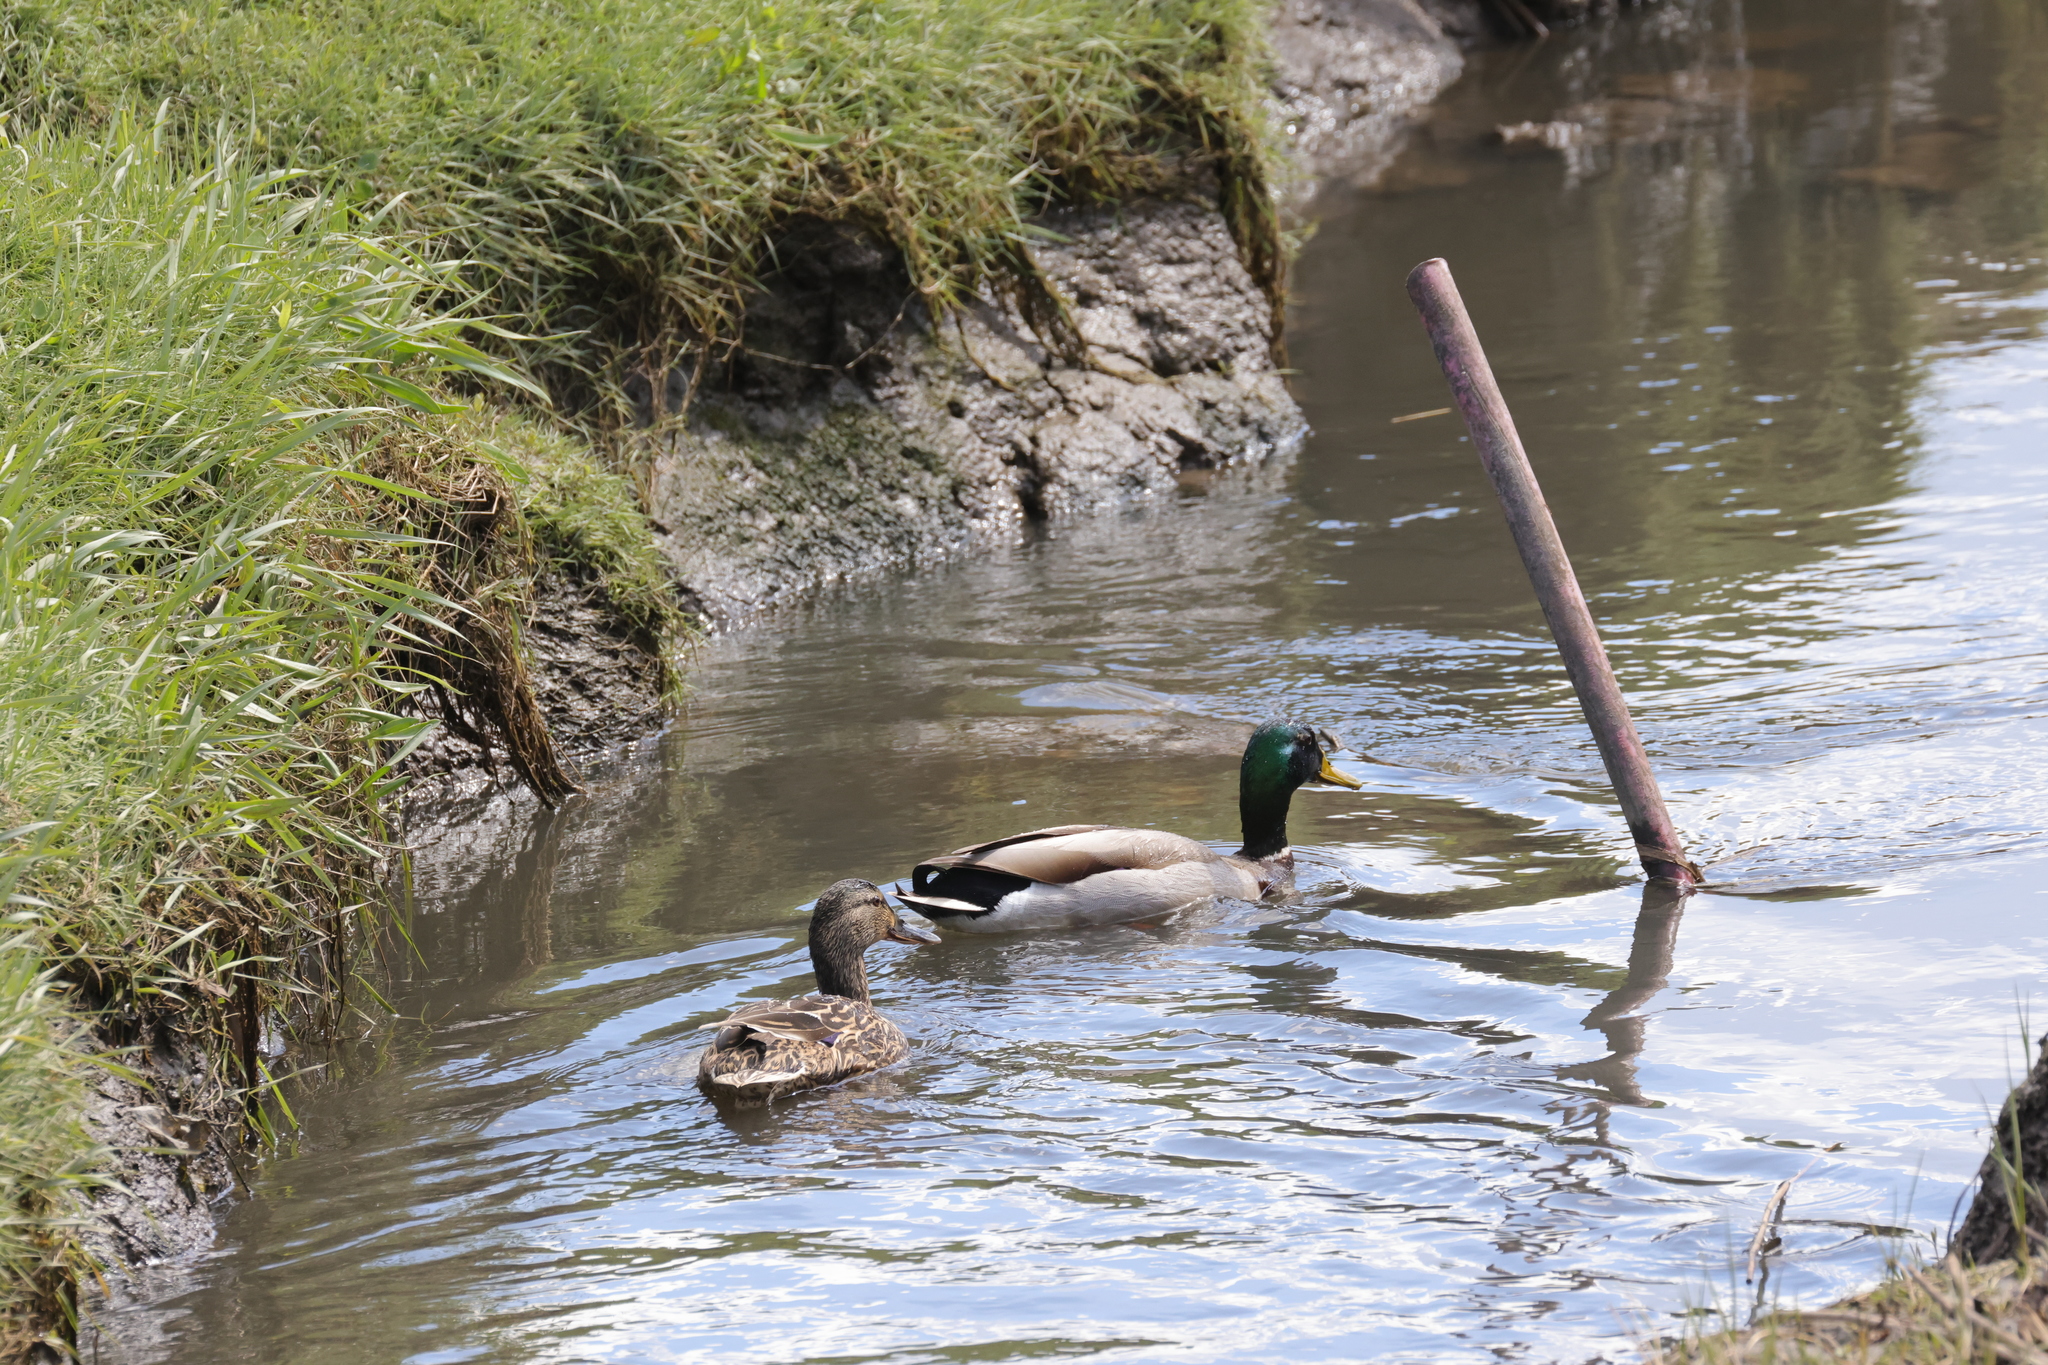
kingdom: Animalia
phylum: Chordata
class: Aves
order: Anseriformes
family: Anatidae
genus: Anas
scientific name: Anas platyrhynchos
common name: Mallard
